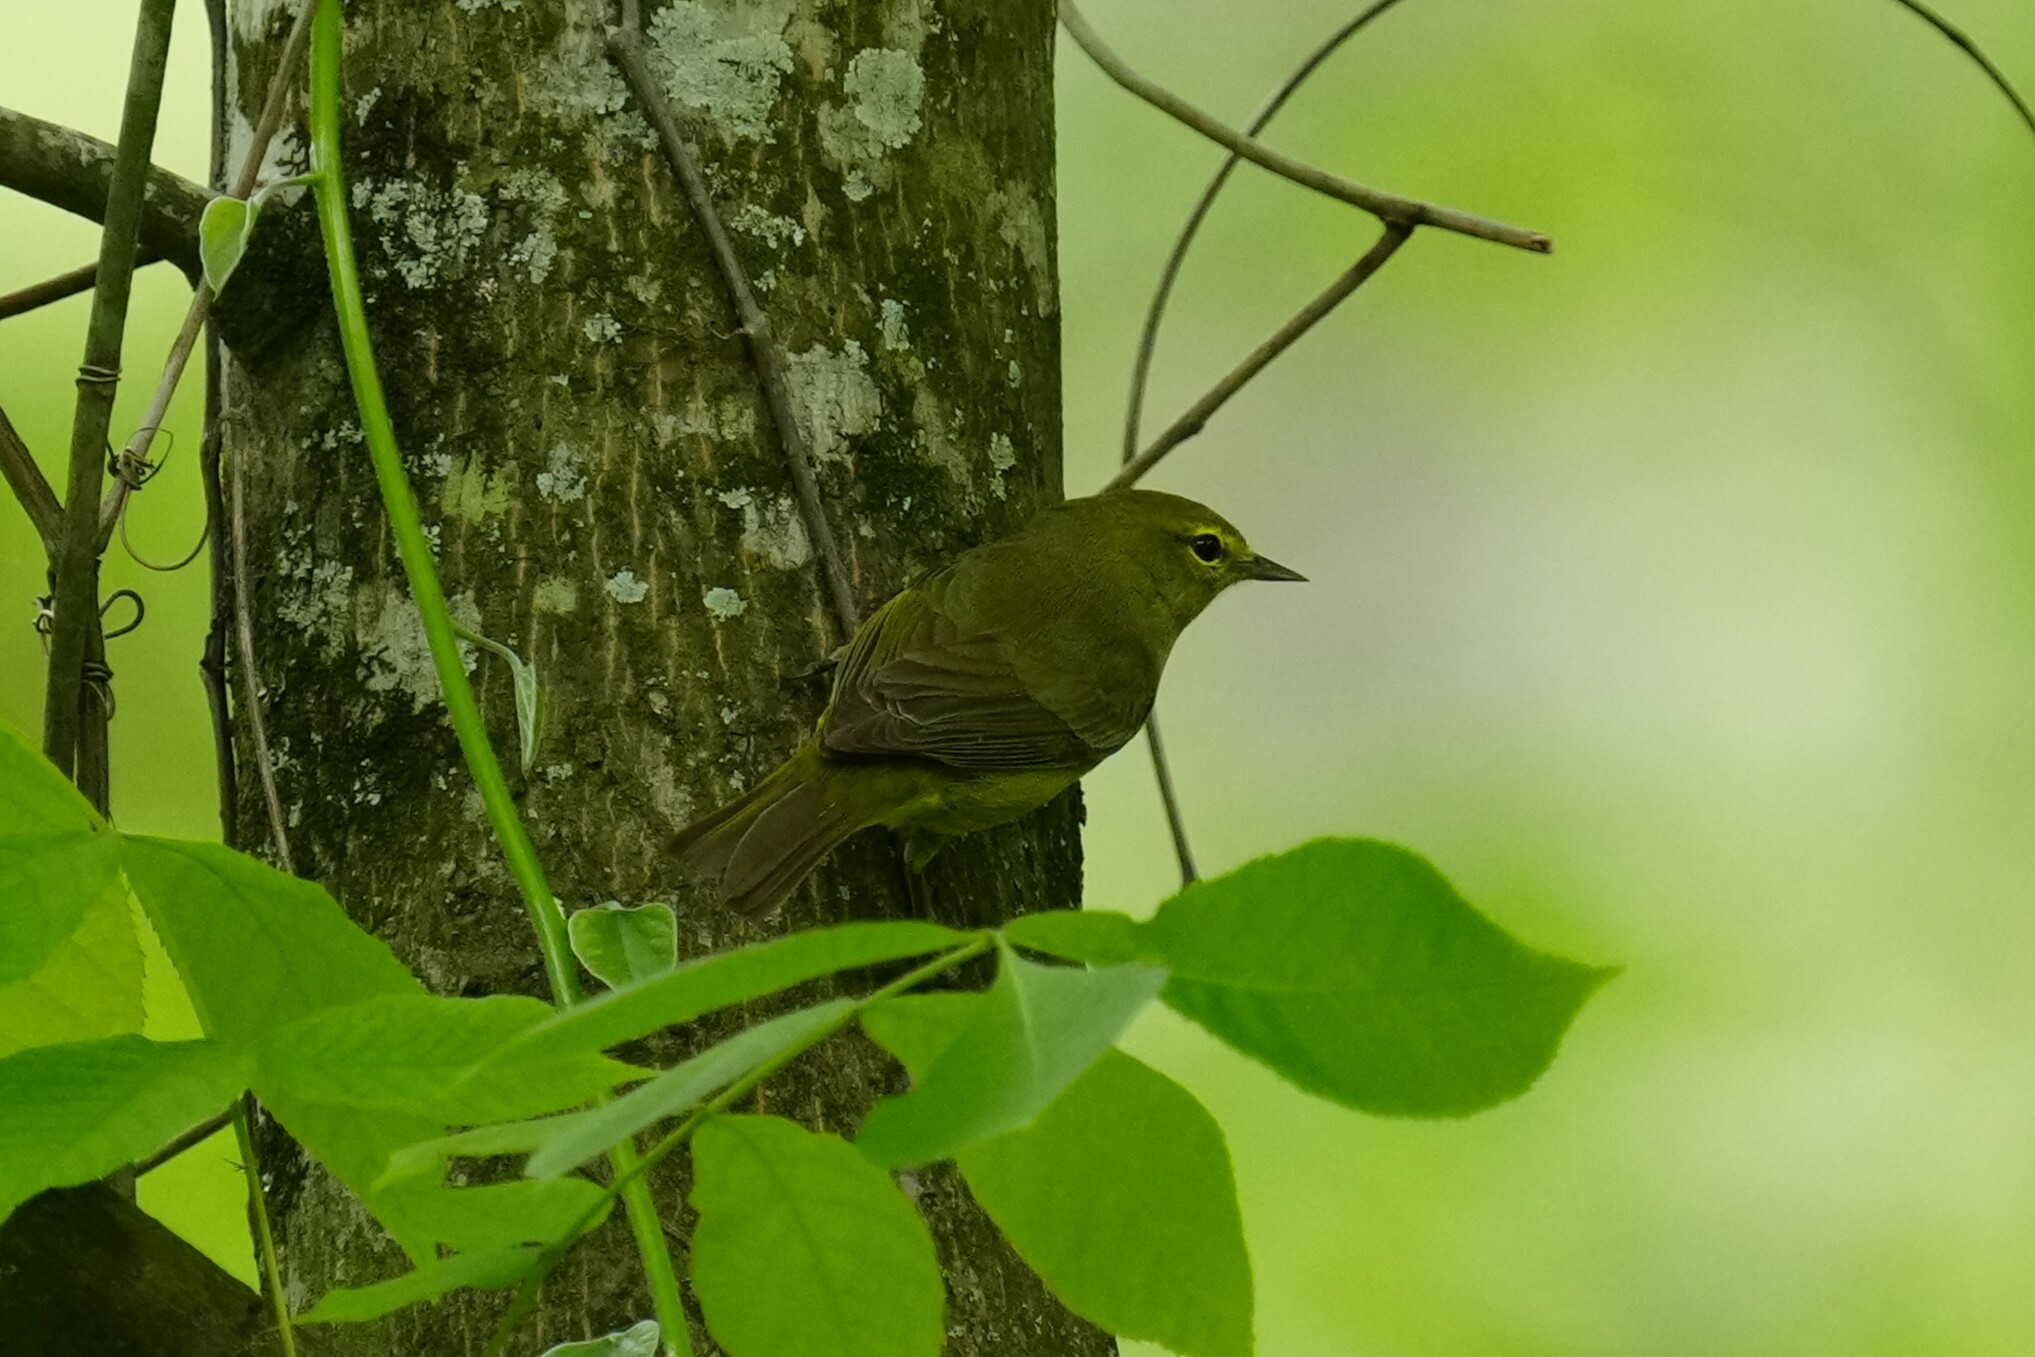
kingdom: Animalia
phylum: Chordata
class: Aves
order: Passeriformes
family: Parulidae
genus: Leiothlypis
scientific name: Leiothlypis celata
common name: Orange-crowned warbler
